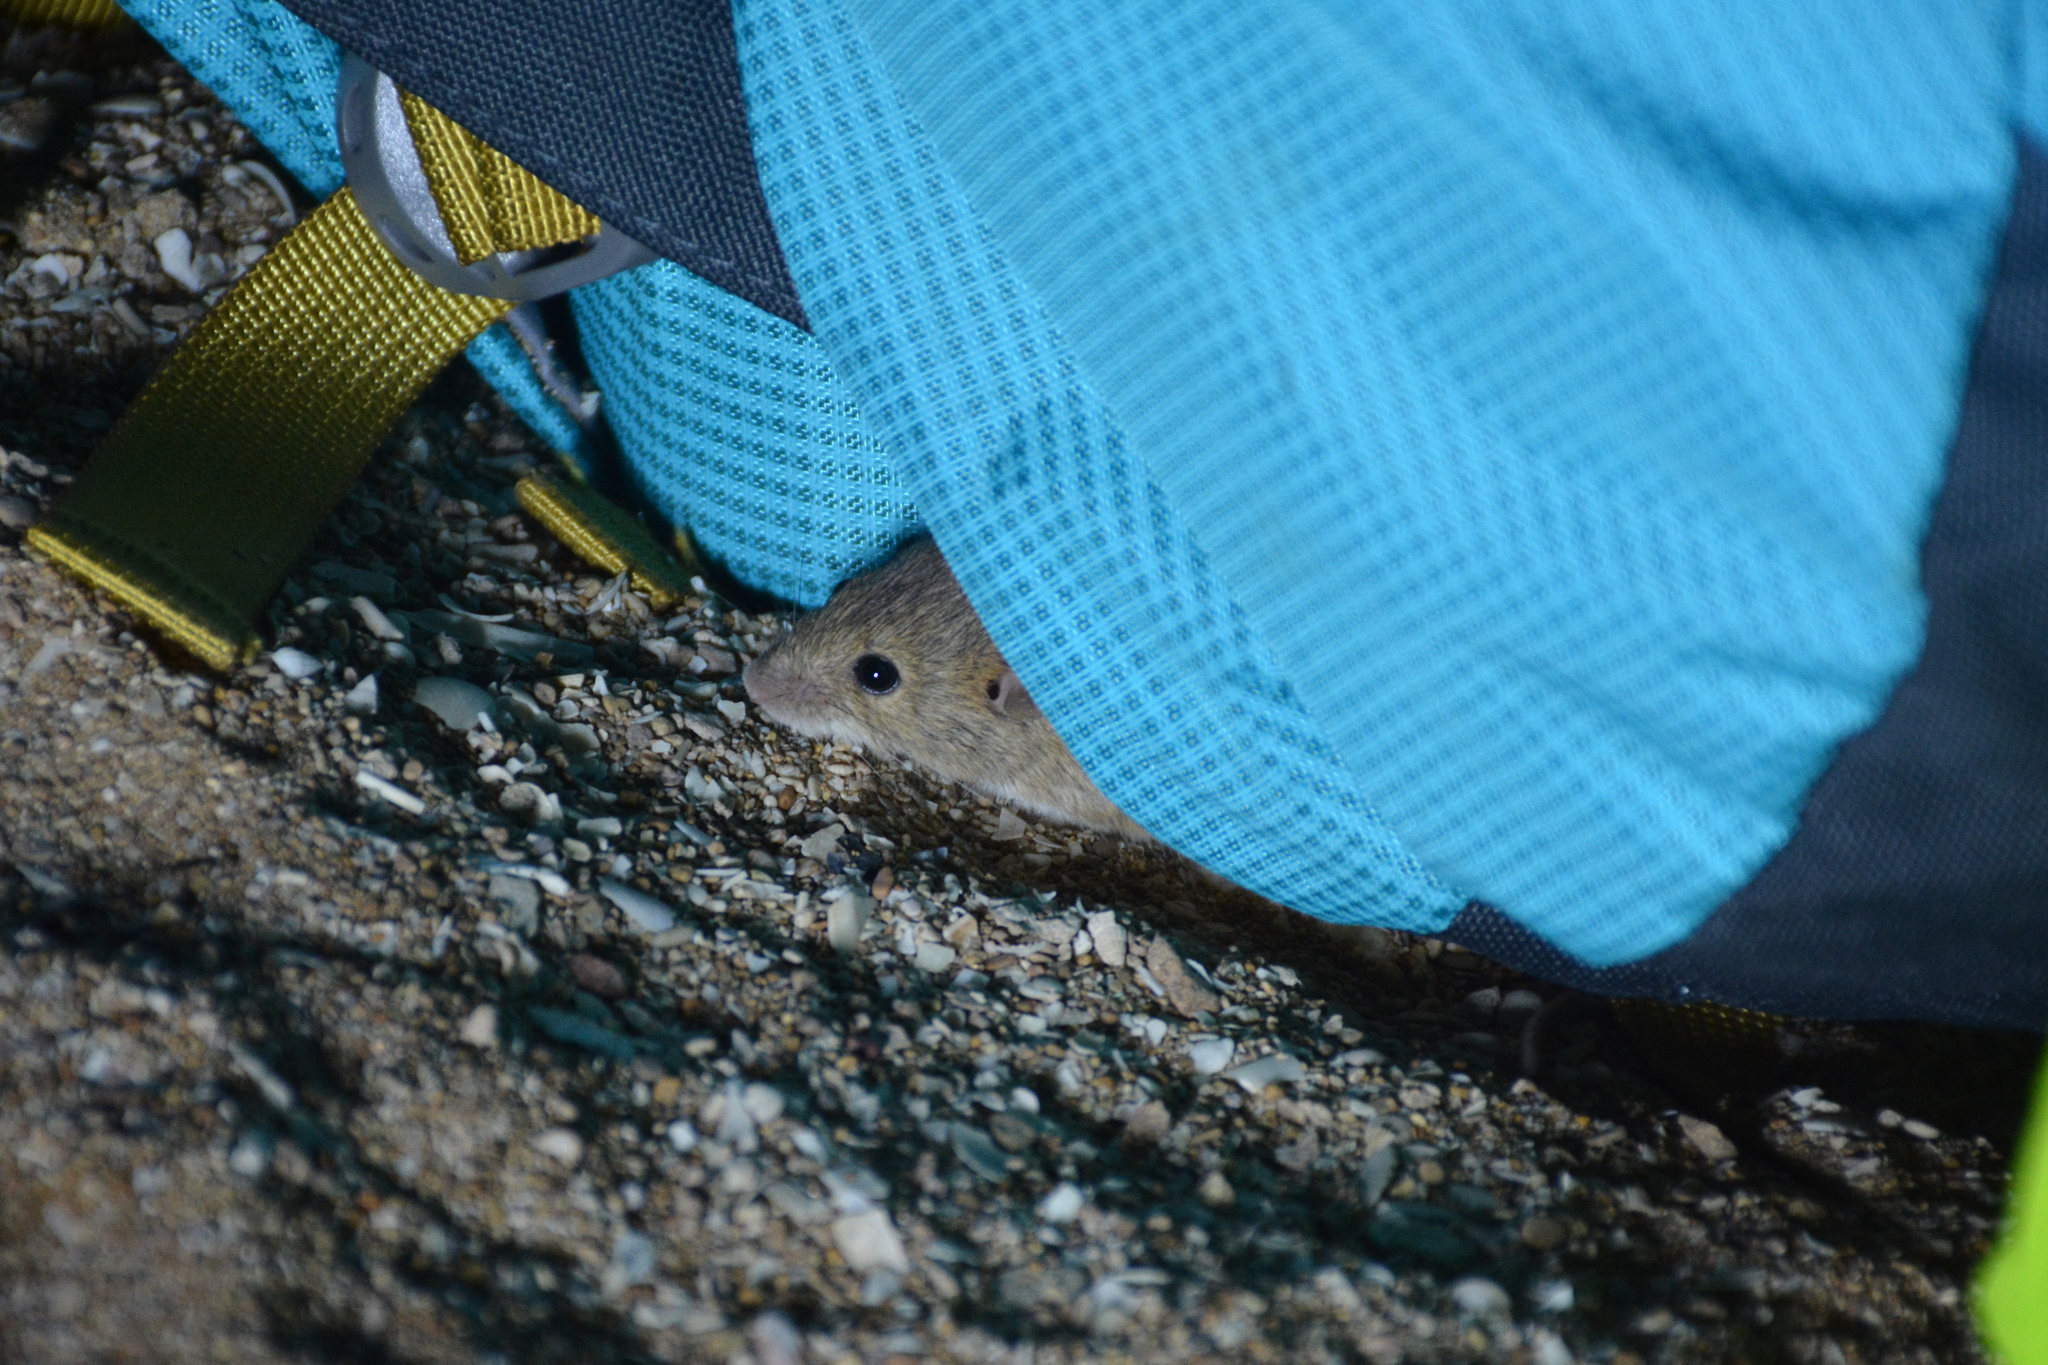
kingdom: Animalia
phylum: Chordata
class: Mammalia
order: Rodentia
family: Muridae
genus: Mus
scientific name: Mus musculus
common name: House mouse
